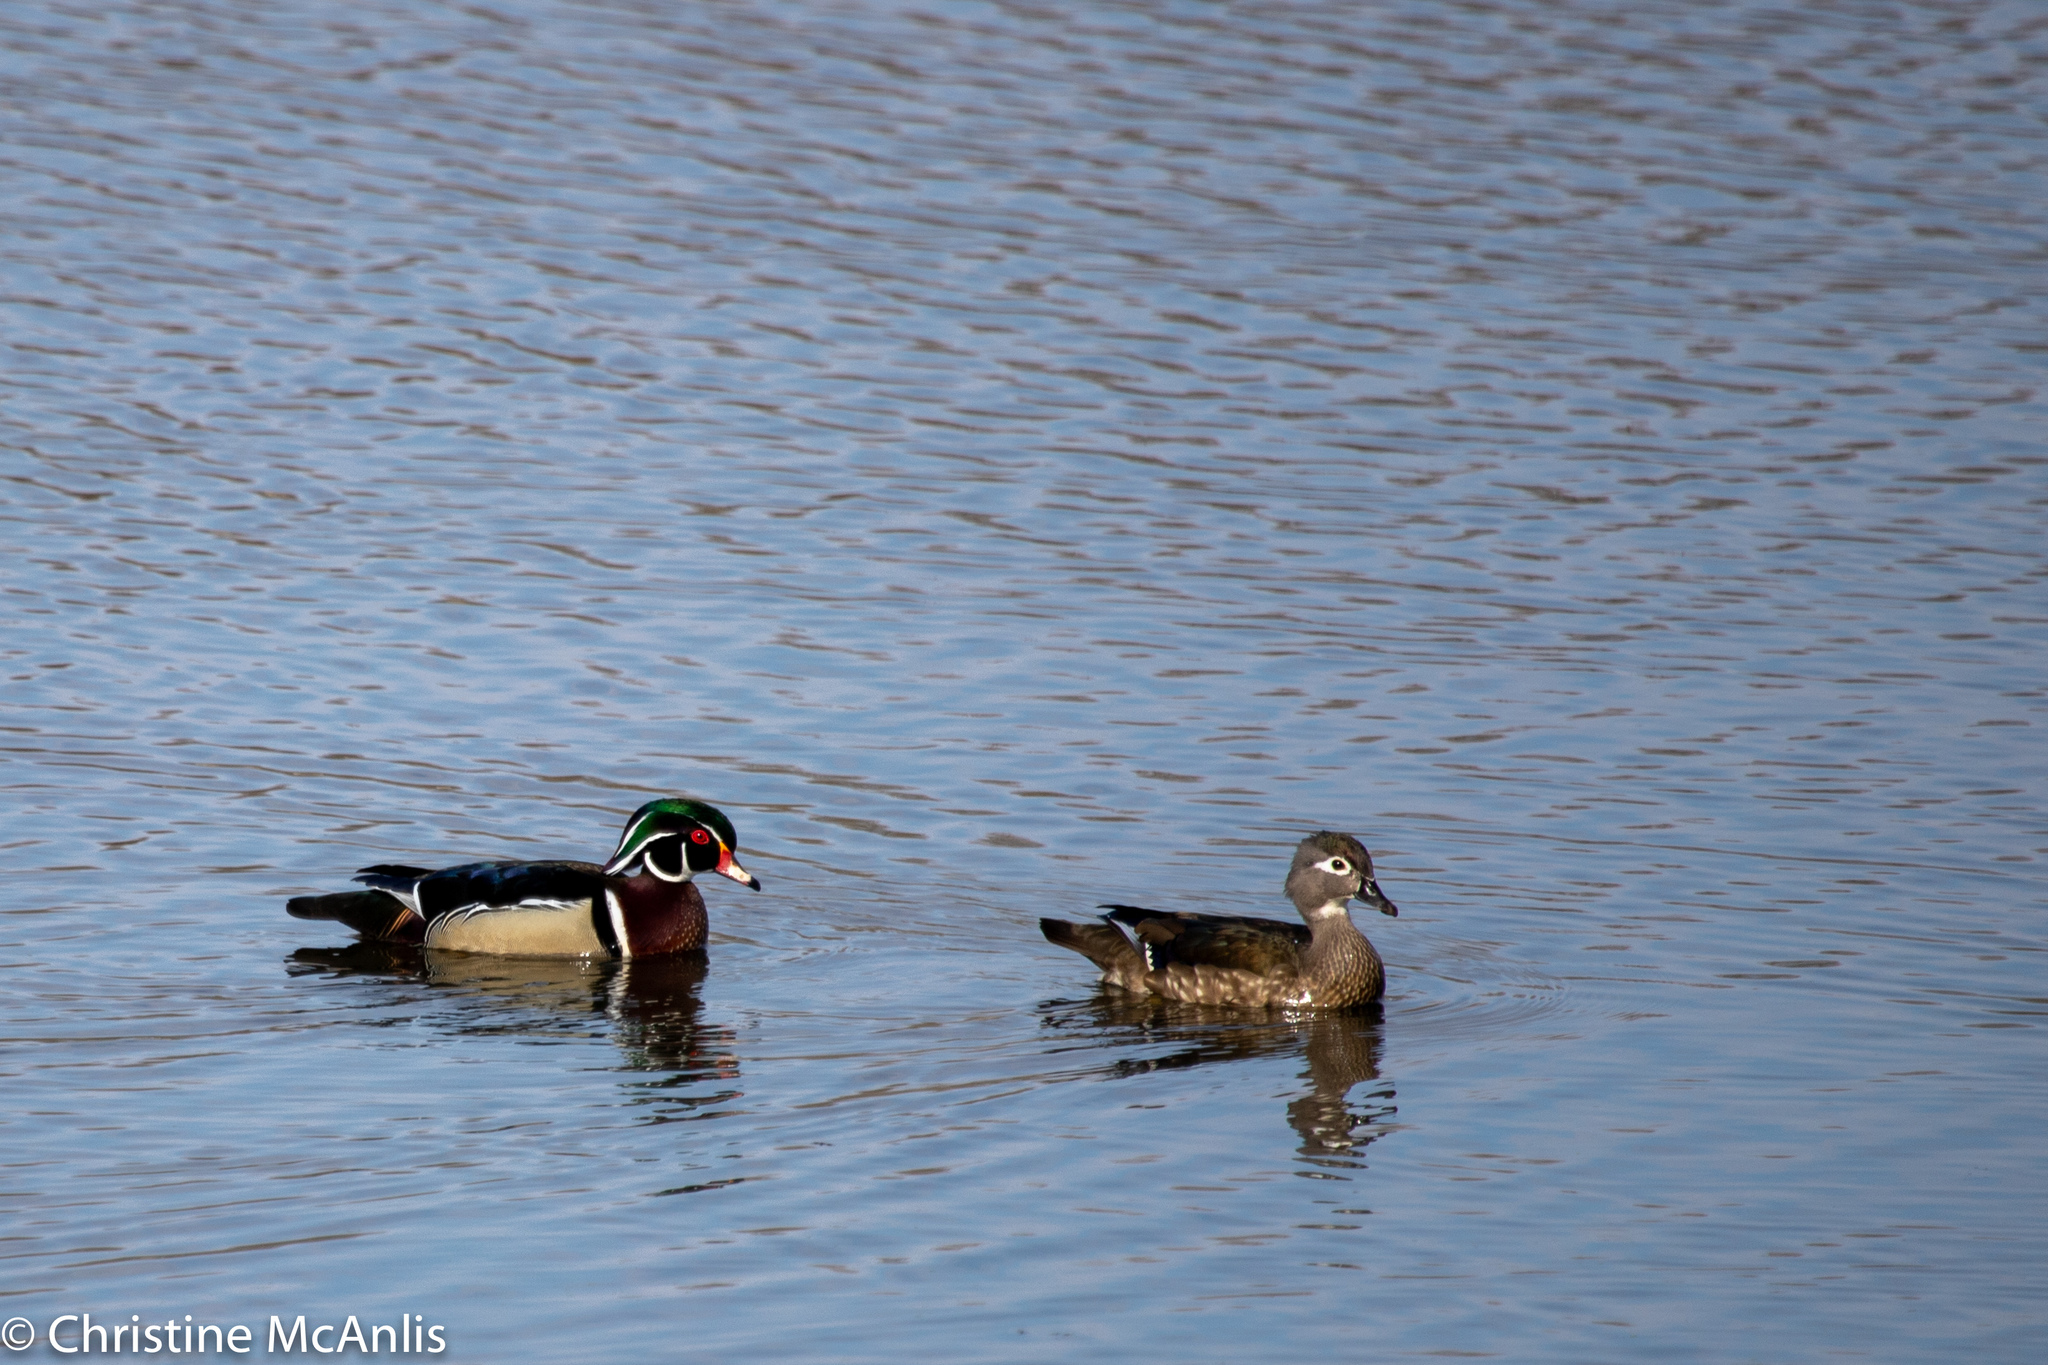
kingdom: Animalia
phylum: Chordata
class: Aves
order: Anseriformes
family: Anatidae
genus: Aix
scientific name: Aix sponsa
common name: Wood duck
